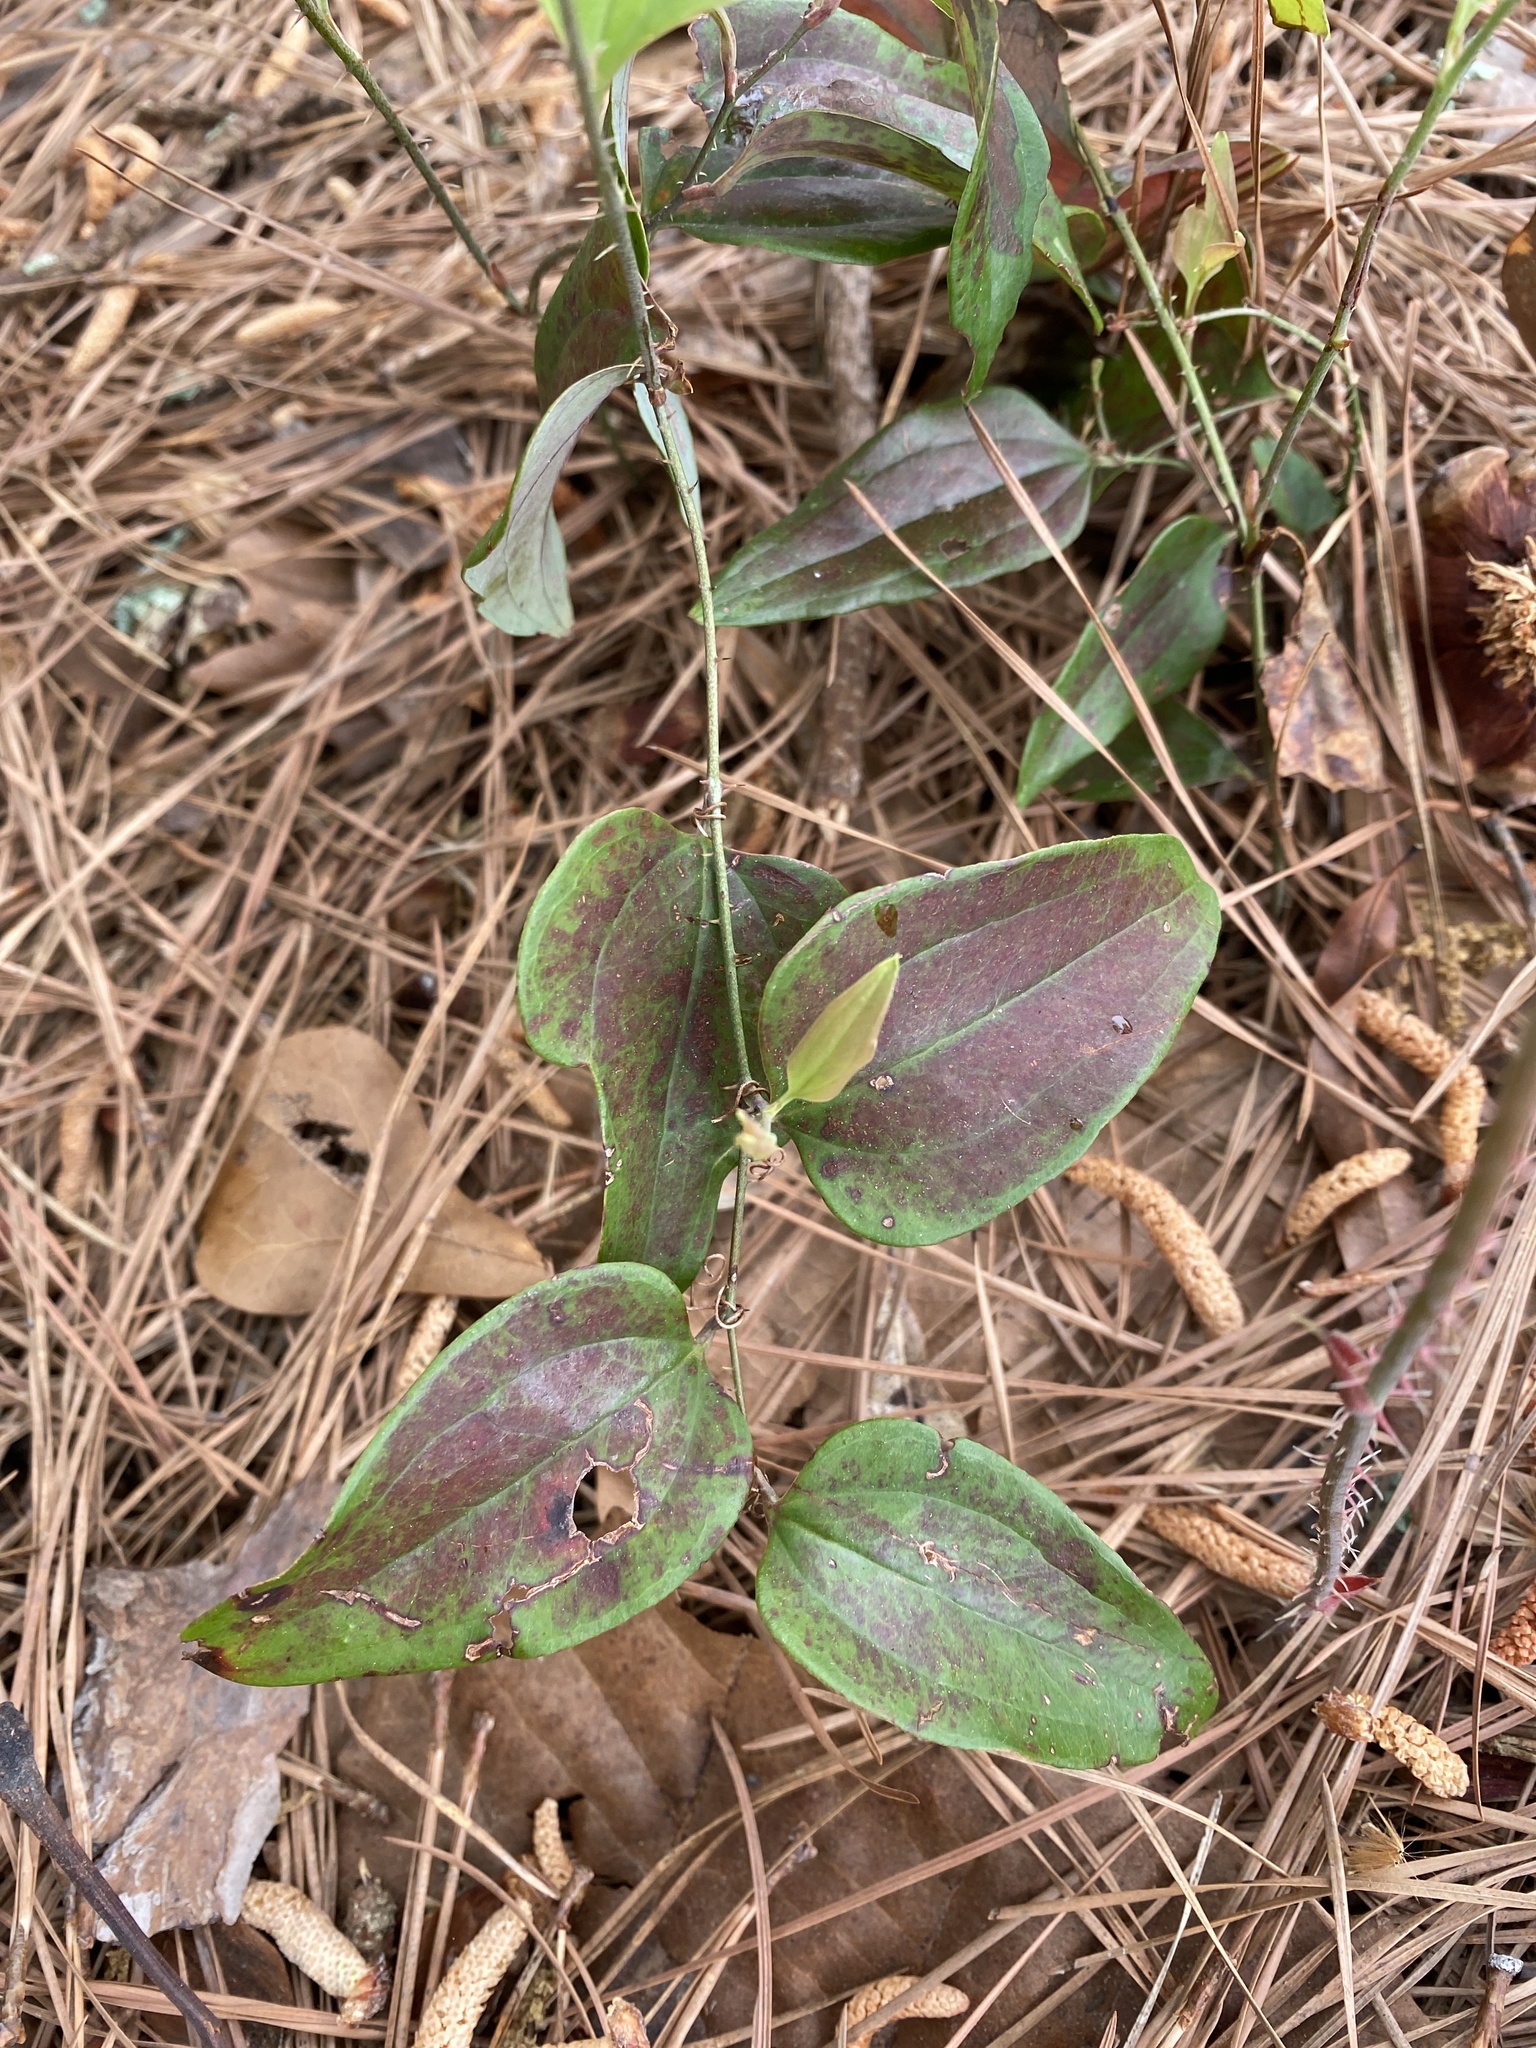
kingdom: Plantae
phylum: Tracheophyta
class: Liliopsida
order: Liliales
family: Smilacaceae
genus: Smilax
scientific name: Smilax glauca
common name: Cat greenbrier
